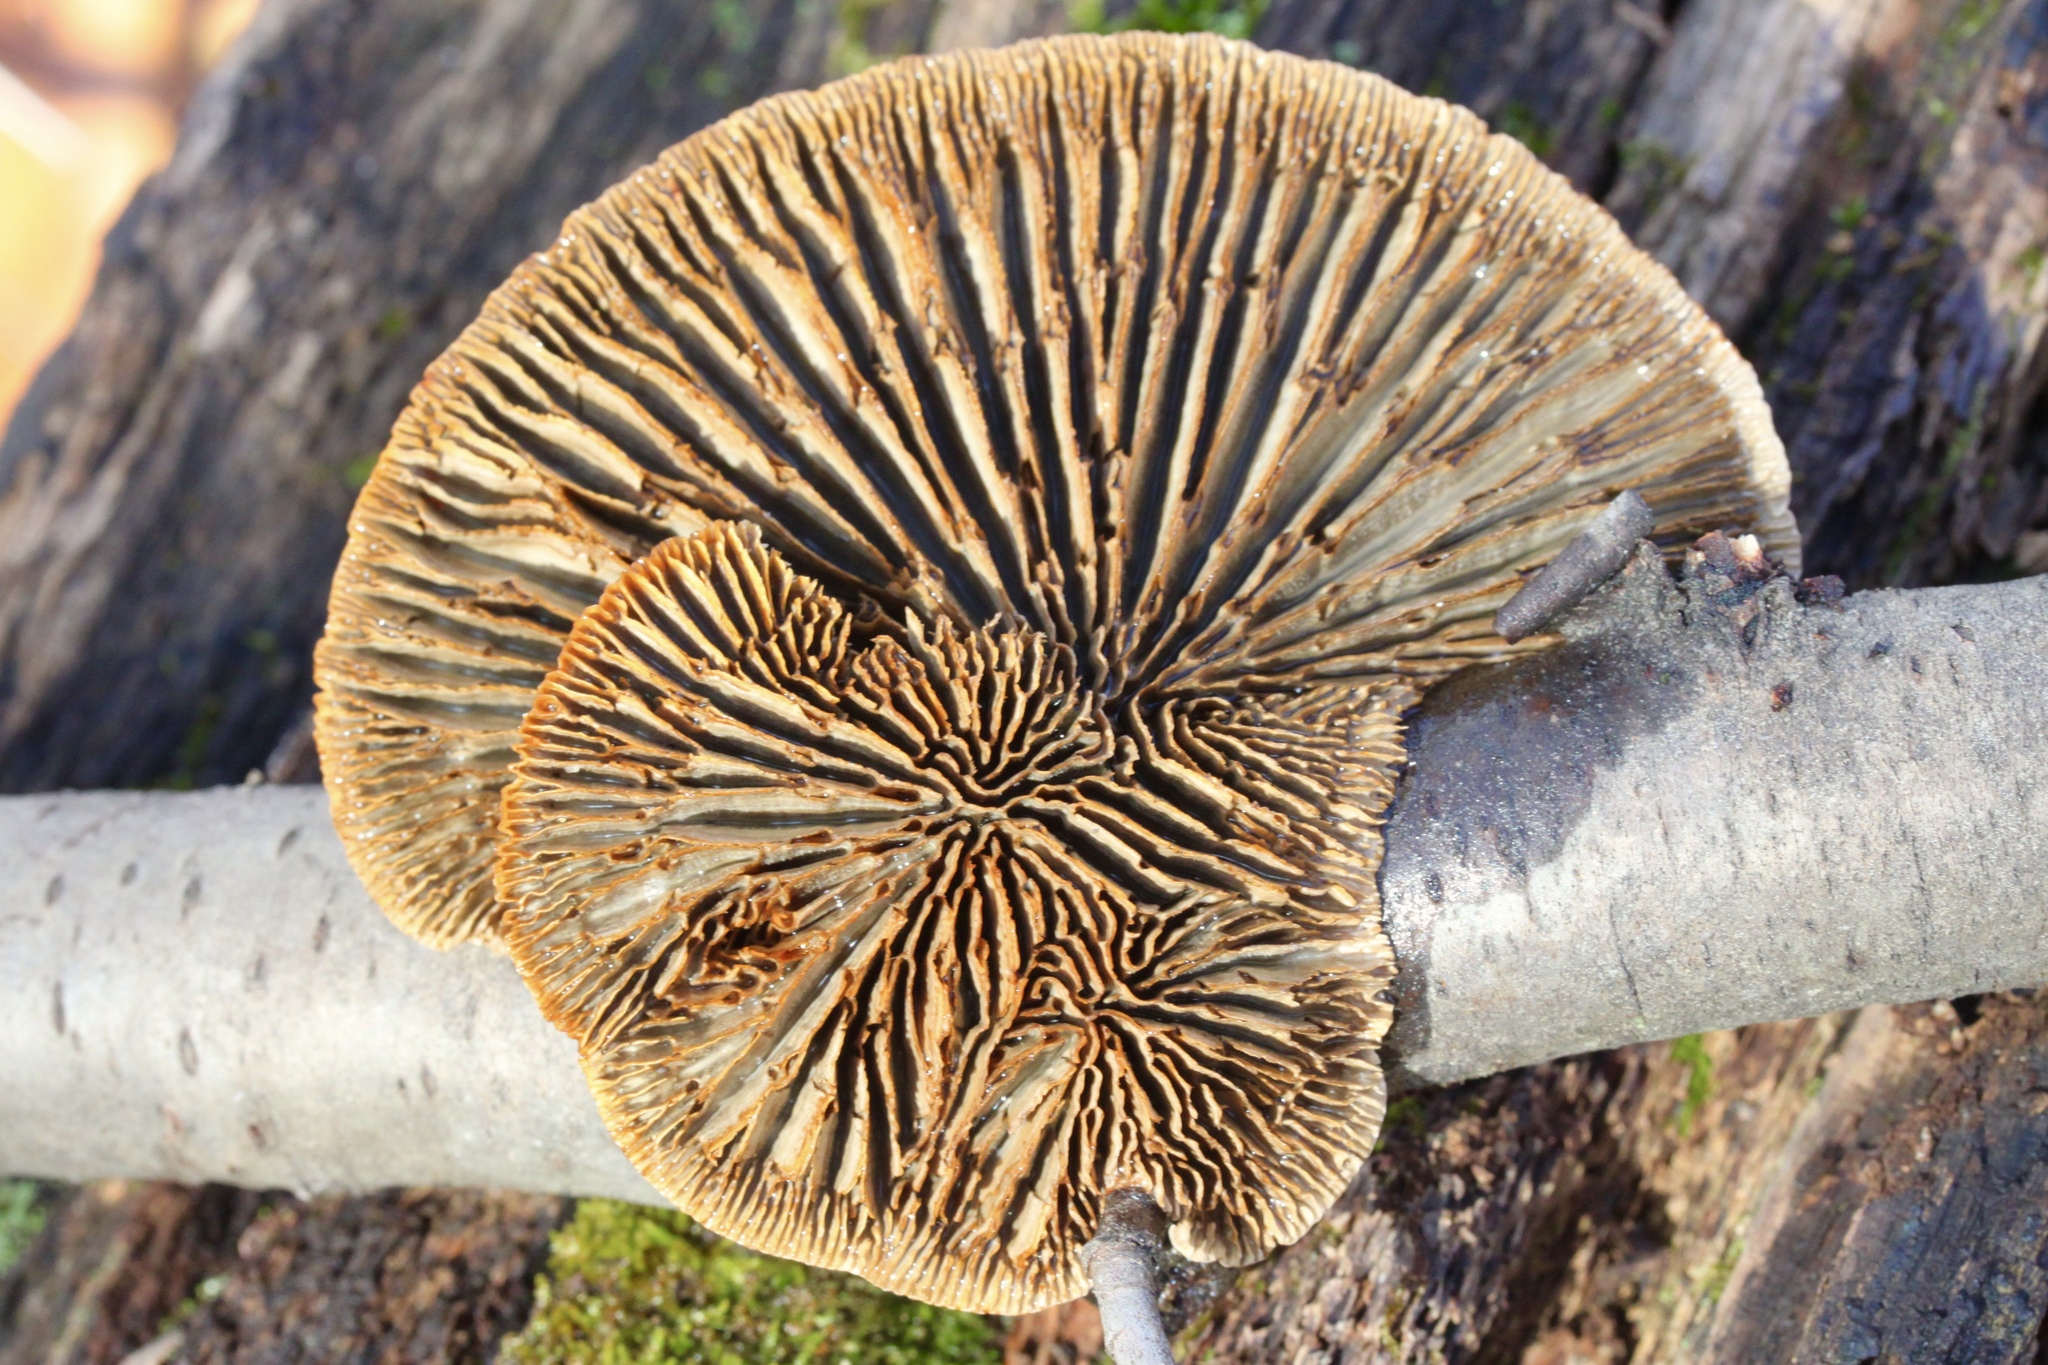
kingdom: Fungi
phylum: Basidiomycota
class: Agaricomycetes
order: Polyporales
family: Polyporaceae
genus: Lenzites
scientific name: Lenzites betulinus
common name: Birch mazegill
